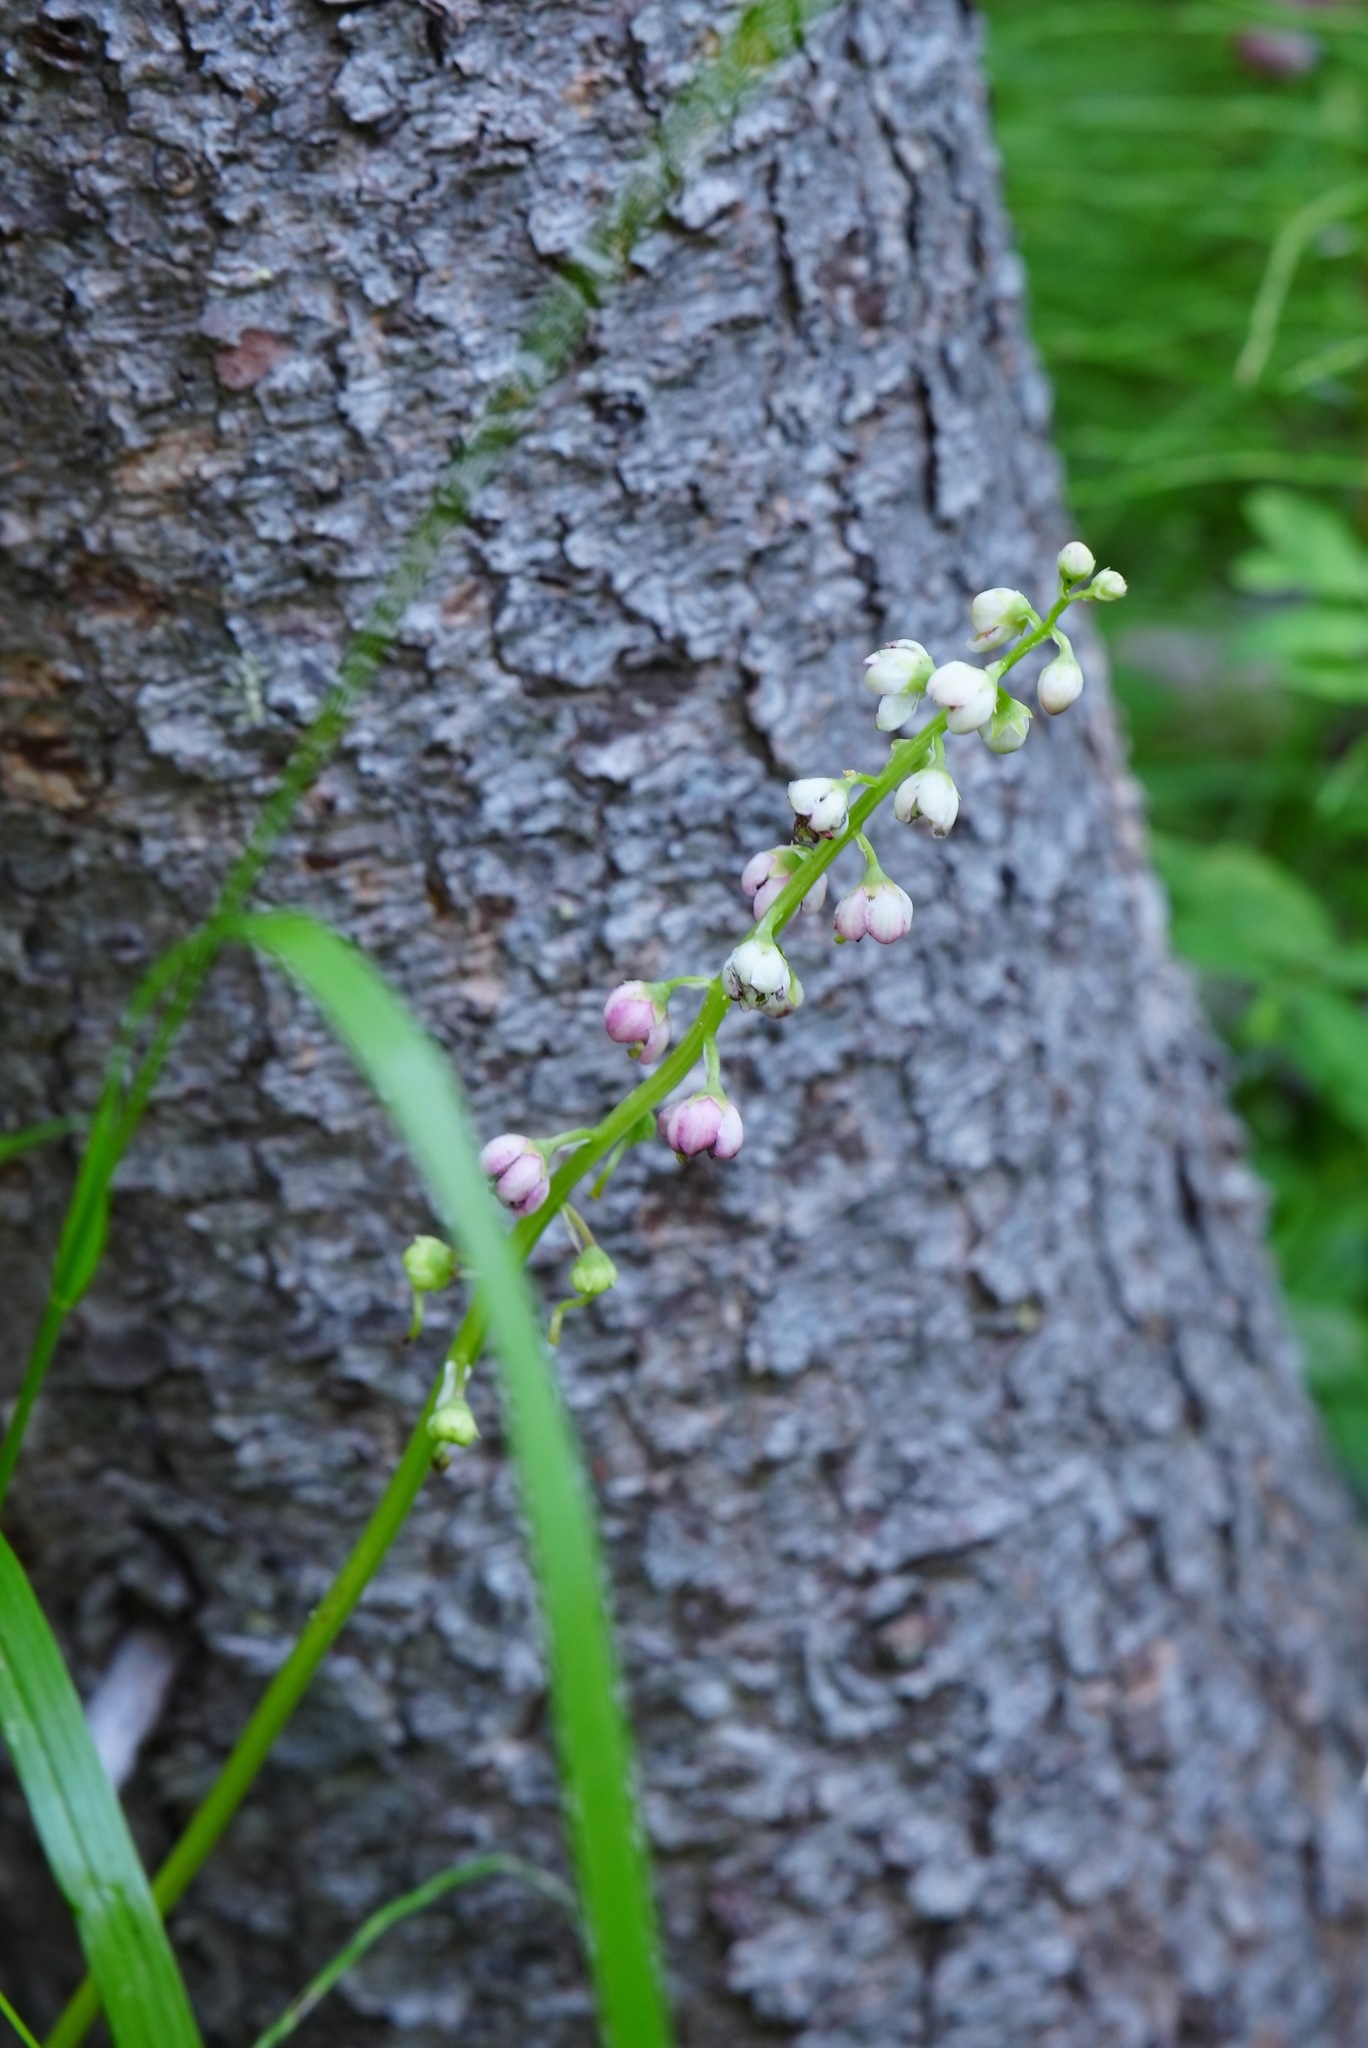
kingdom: Plantae
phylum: Tracheophyta
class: Magnoliopsida
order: Ericales
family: Ericaceae
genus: Pyrola
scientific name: Pyrola asarifolia
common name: Bog wintergreen
